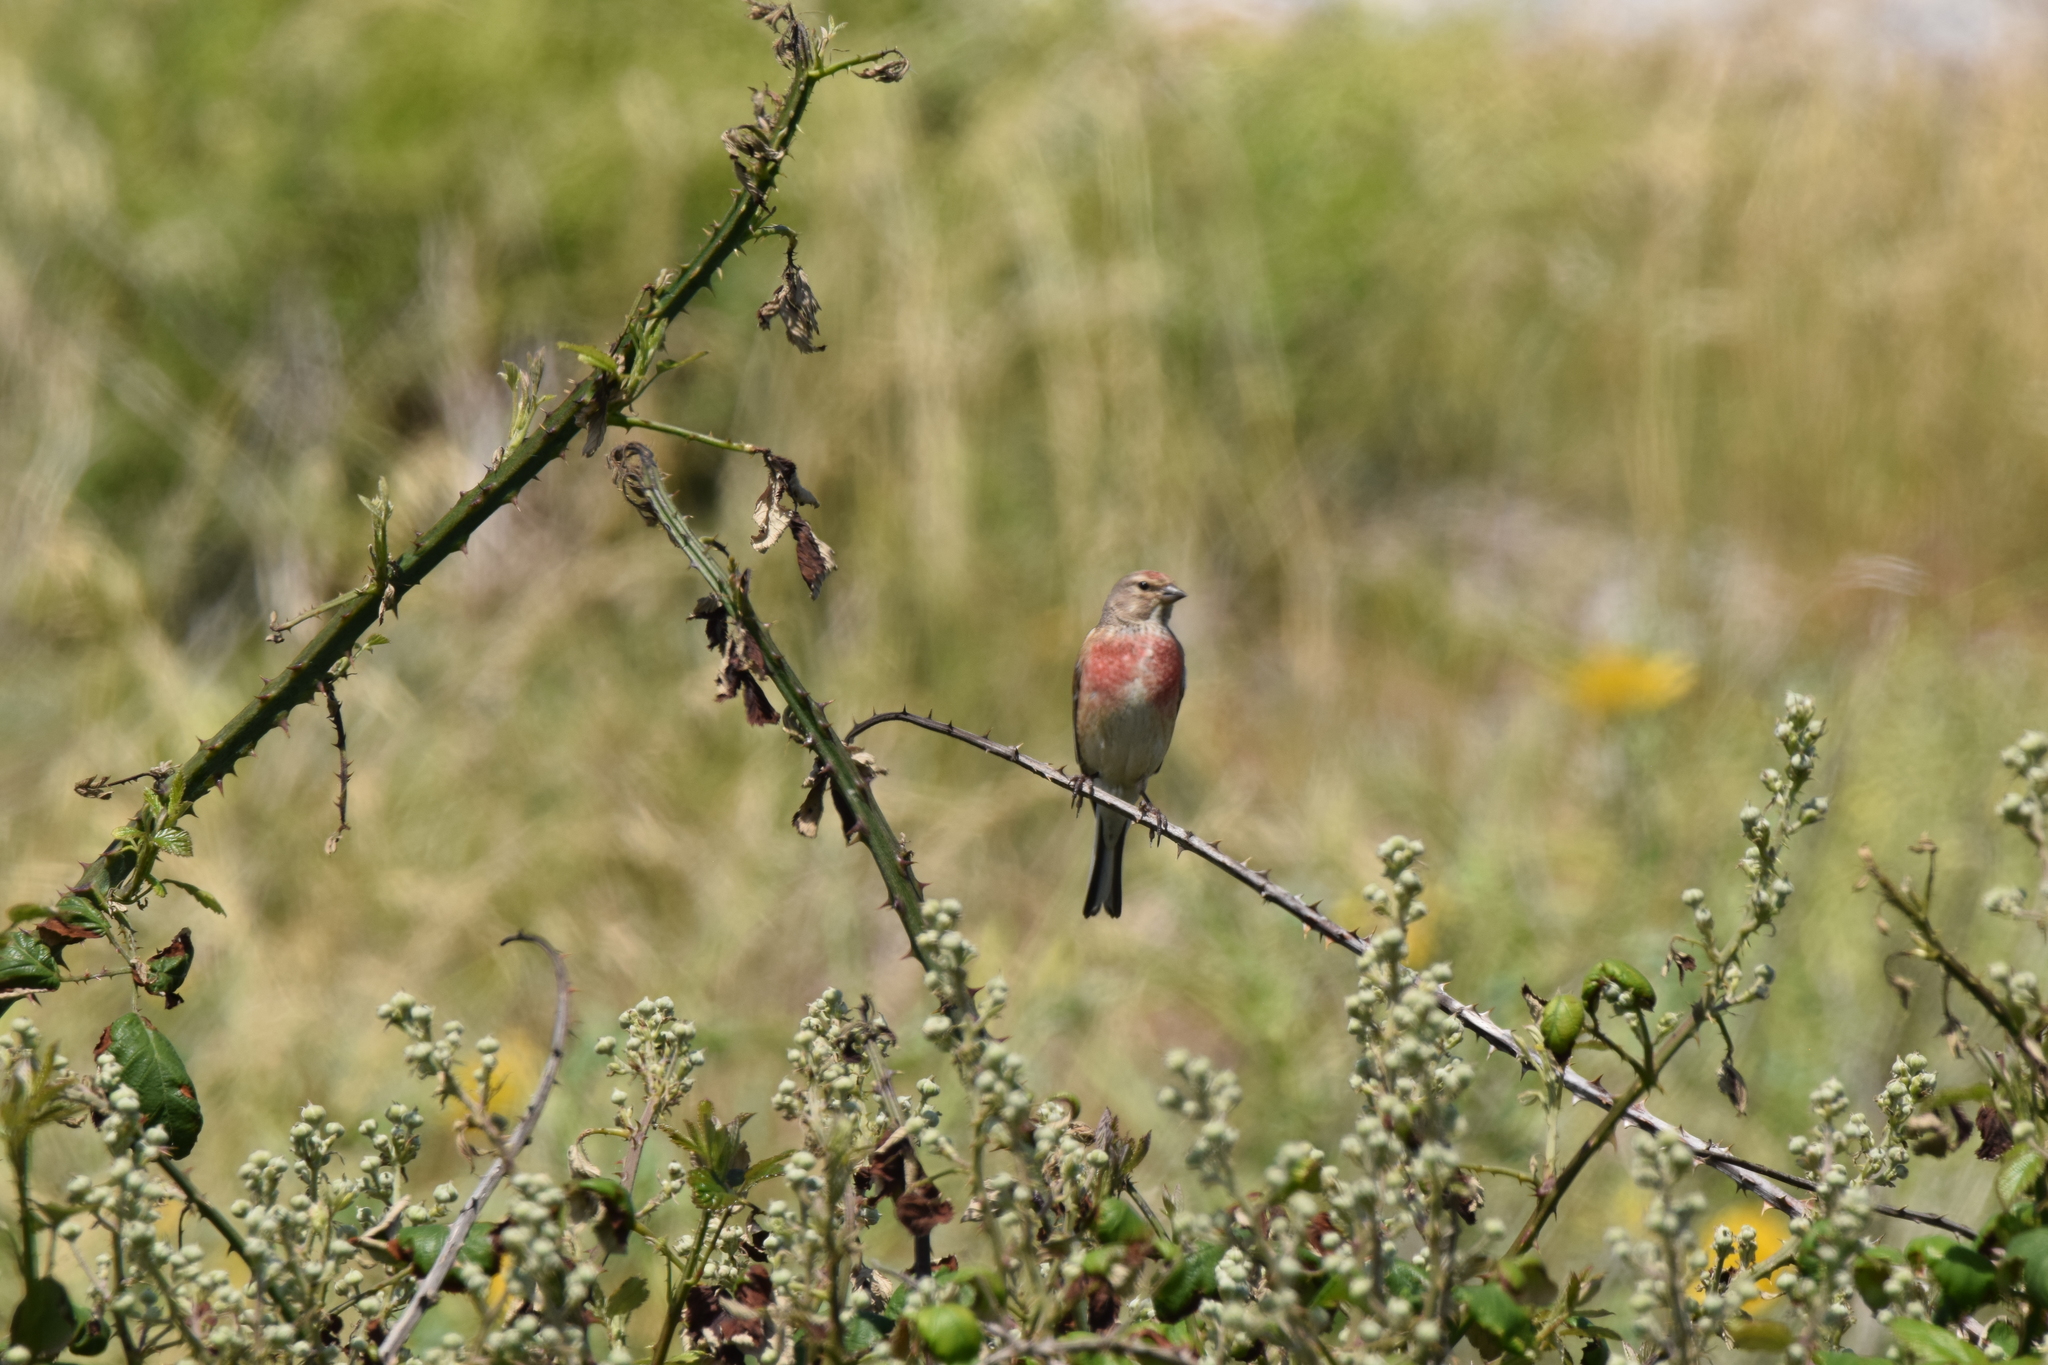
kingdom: Animalia
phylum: Chordata
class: Aves
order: Passeriformes
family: Fringillidae
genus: Linaria
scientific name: Linaria cannabina
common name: Common linnet
